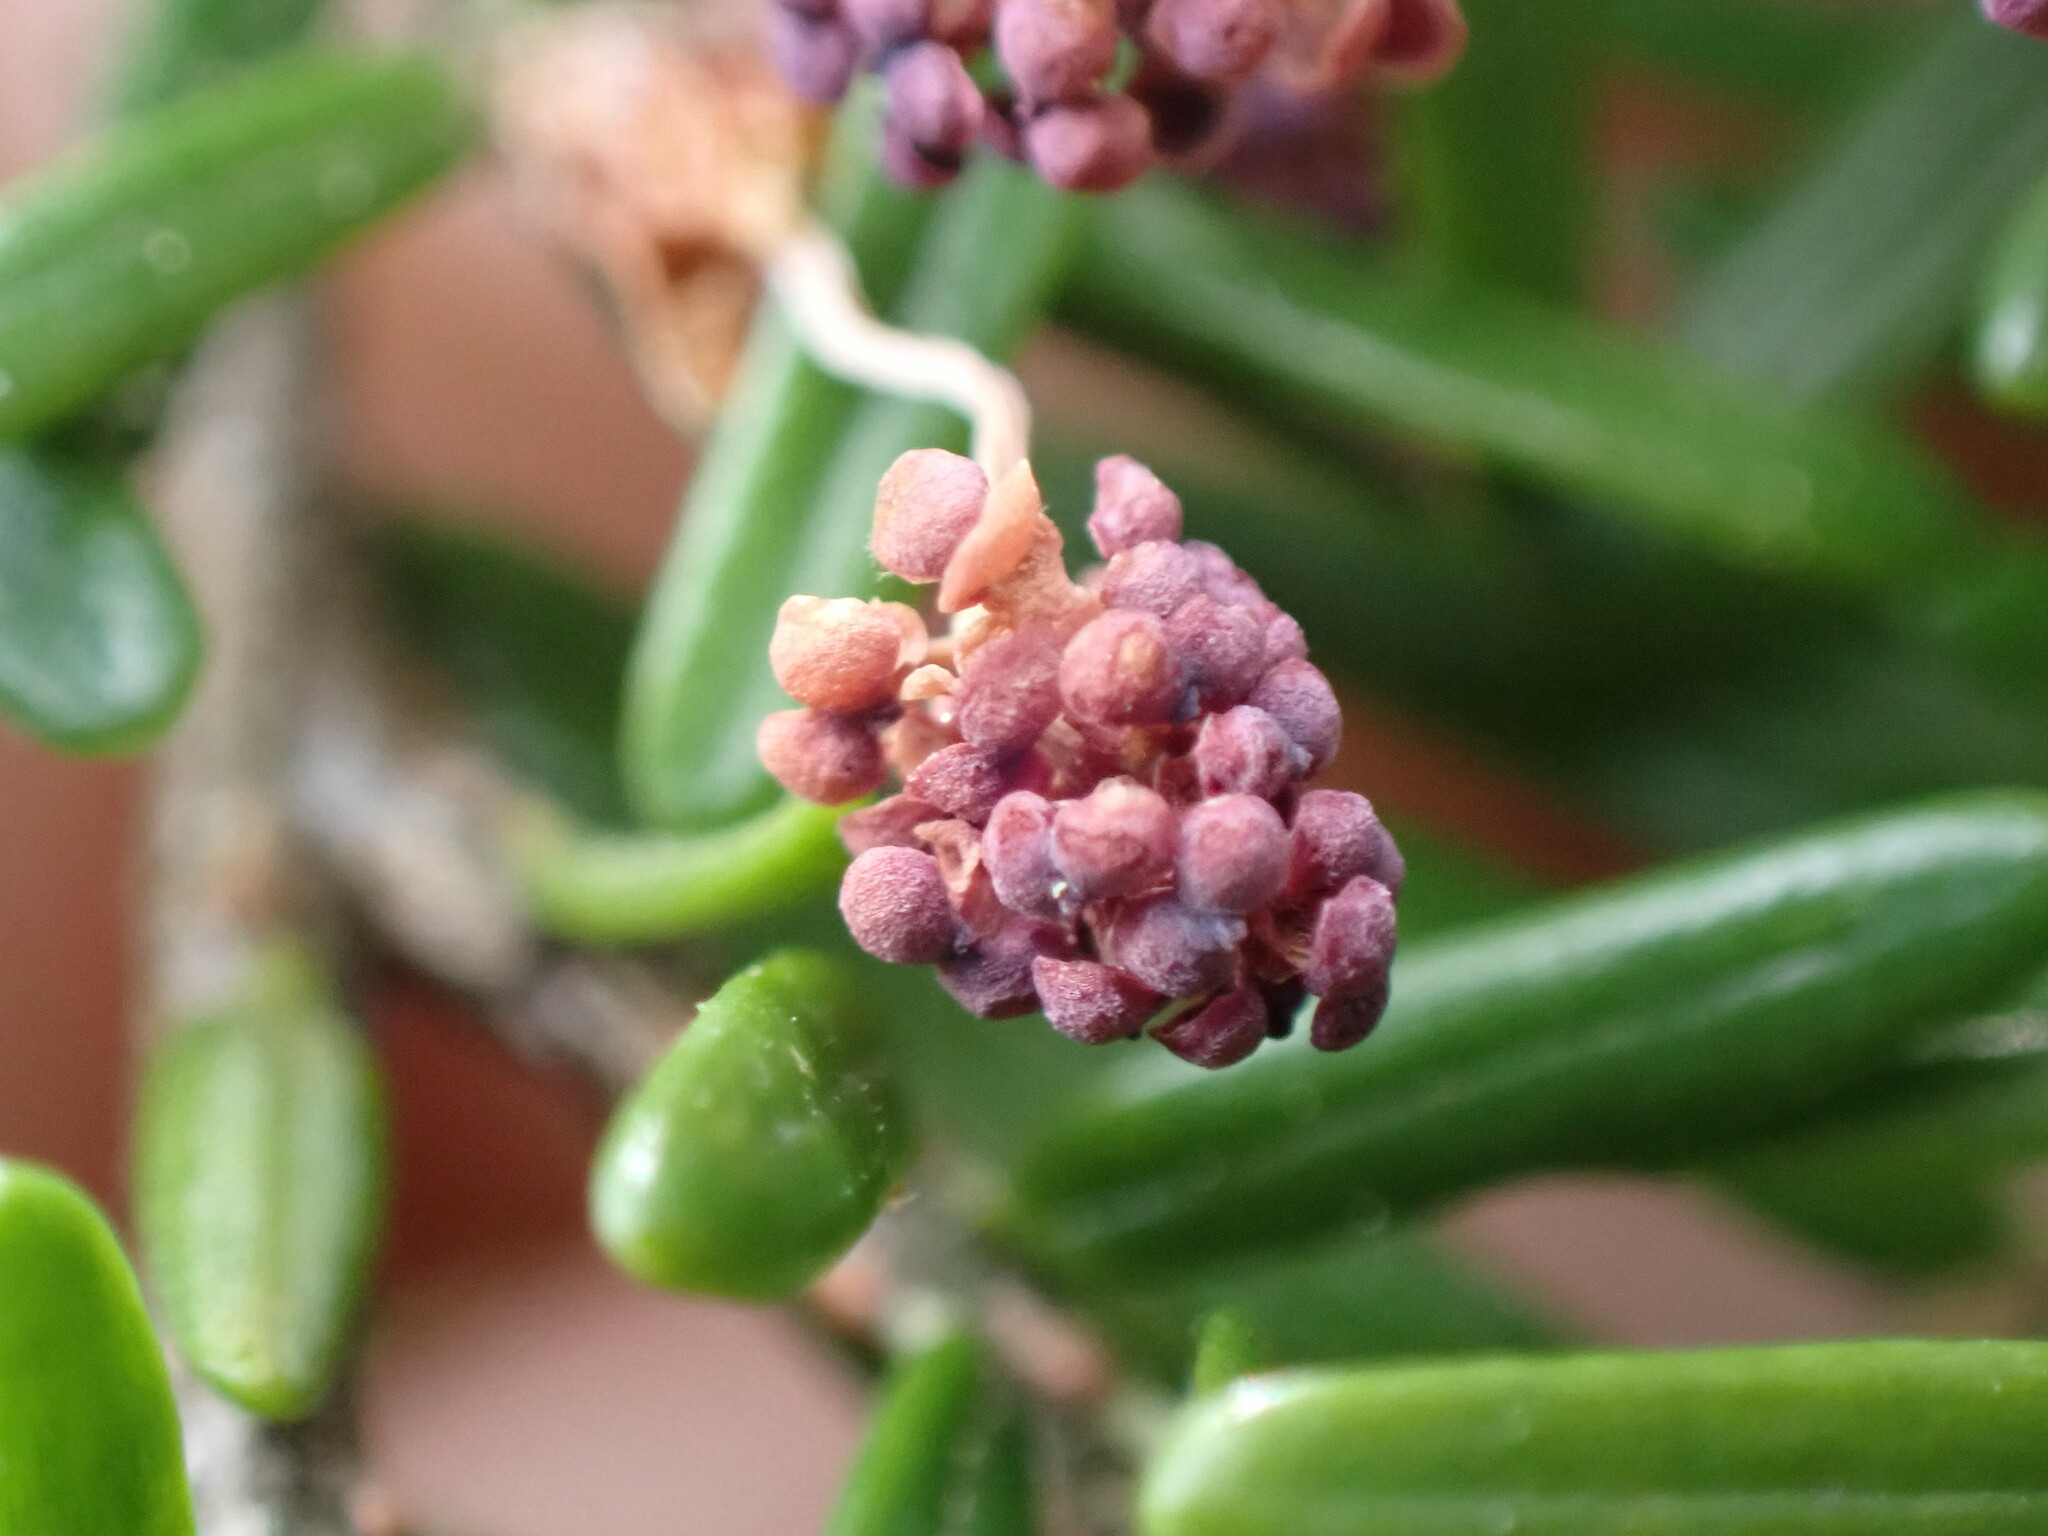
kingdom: Plantae
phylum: Tracheophyta
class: Pinopsida
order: Pinales
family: Pinaceae
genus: Tsuga
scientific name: Tsuga heterophylla
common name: Western hemlock
